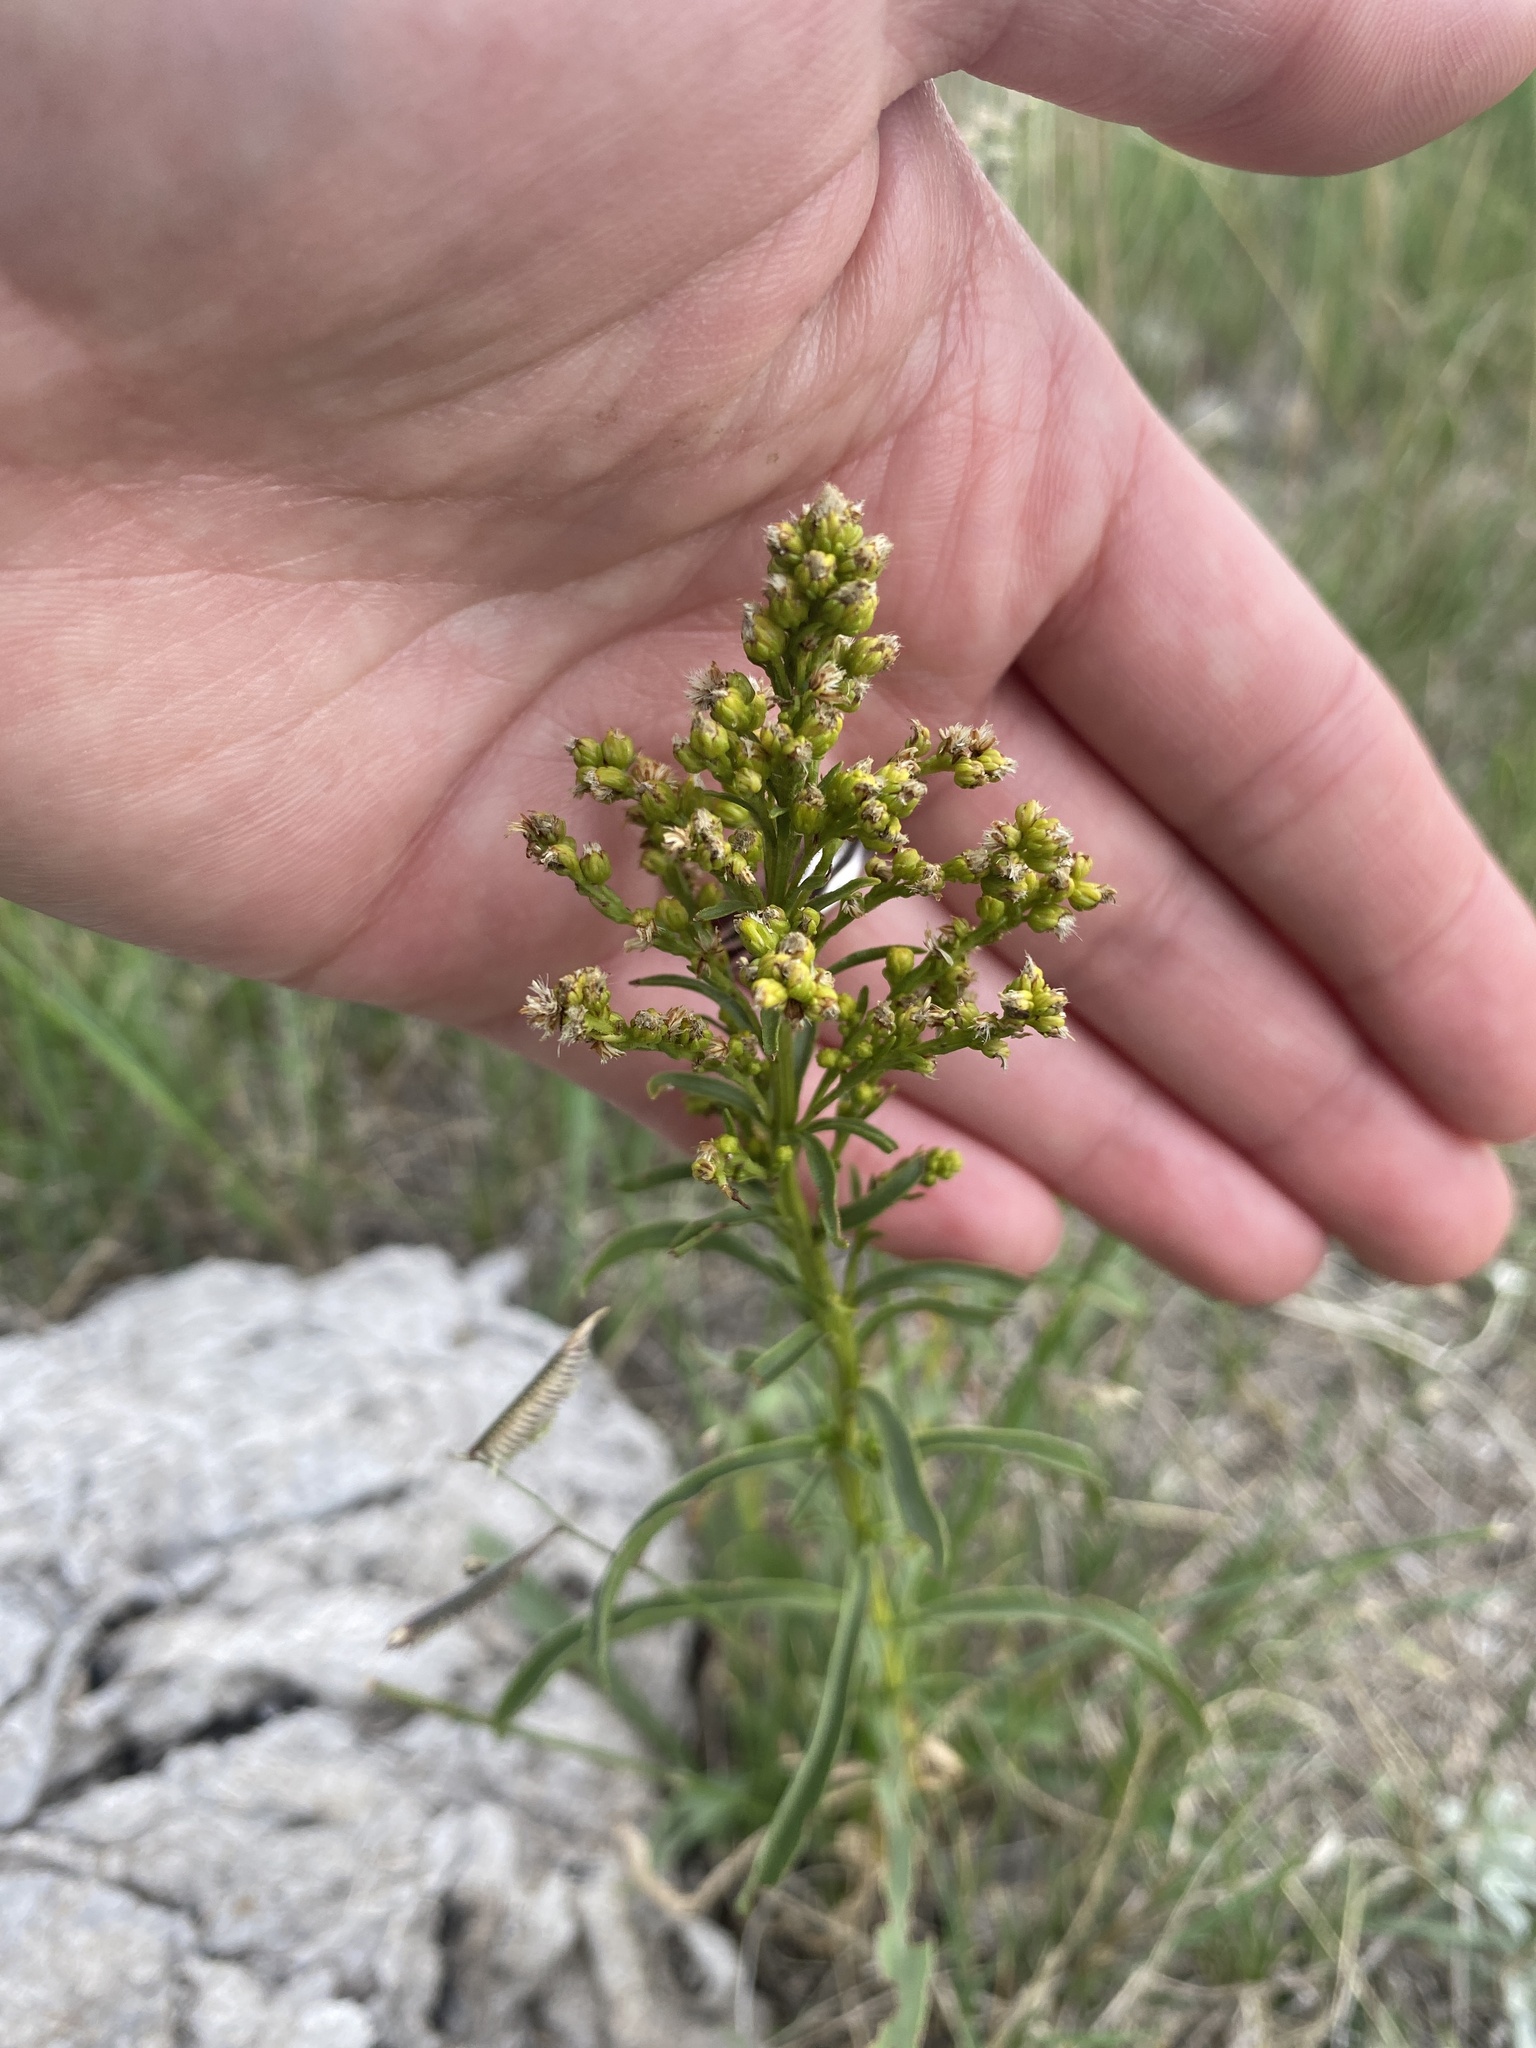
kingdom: Plantae
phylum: Tracheophyta
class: Magnoliopsida
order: Asterales
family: Asteraceae
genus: Solidago
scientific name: Solidago missouriensis
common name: Prairie goldenrod
